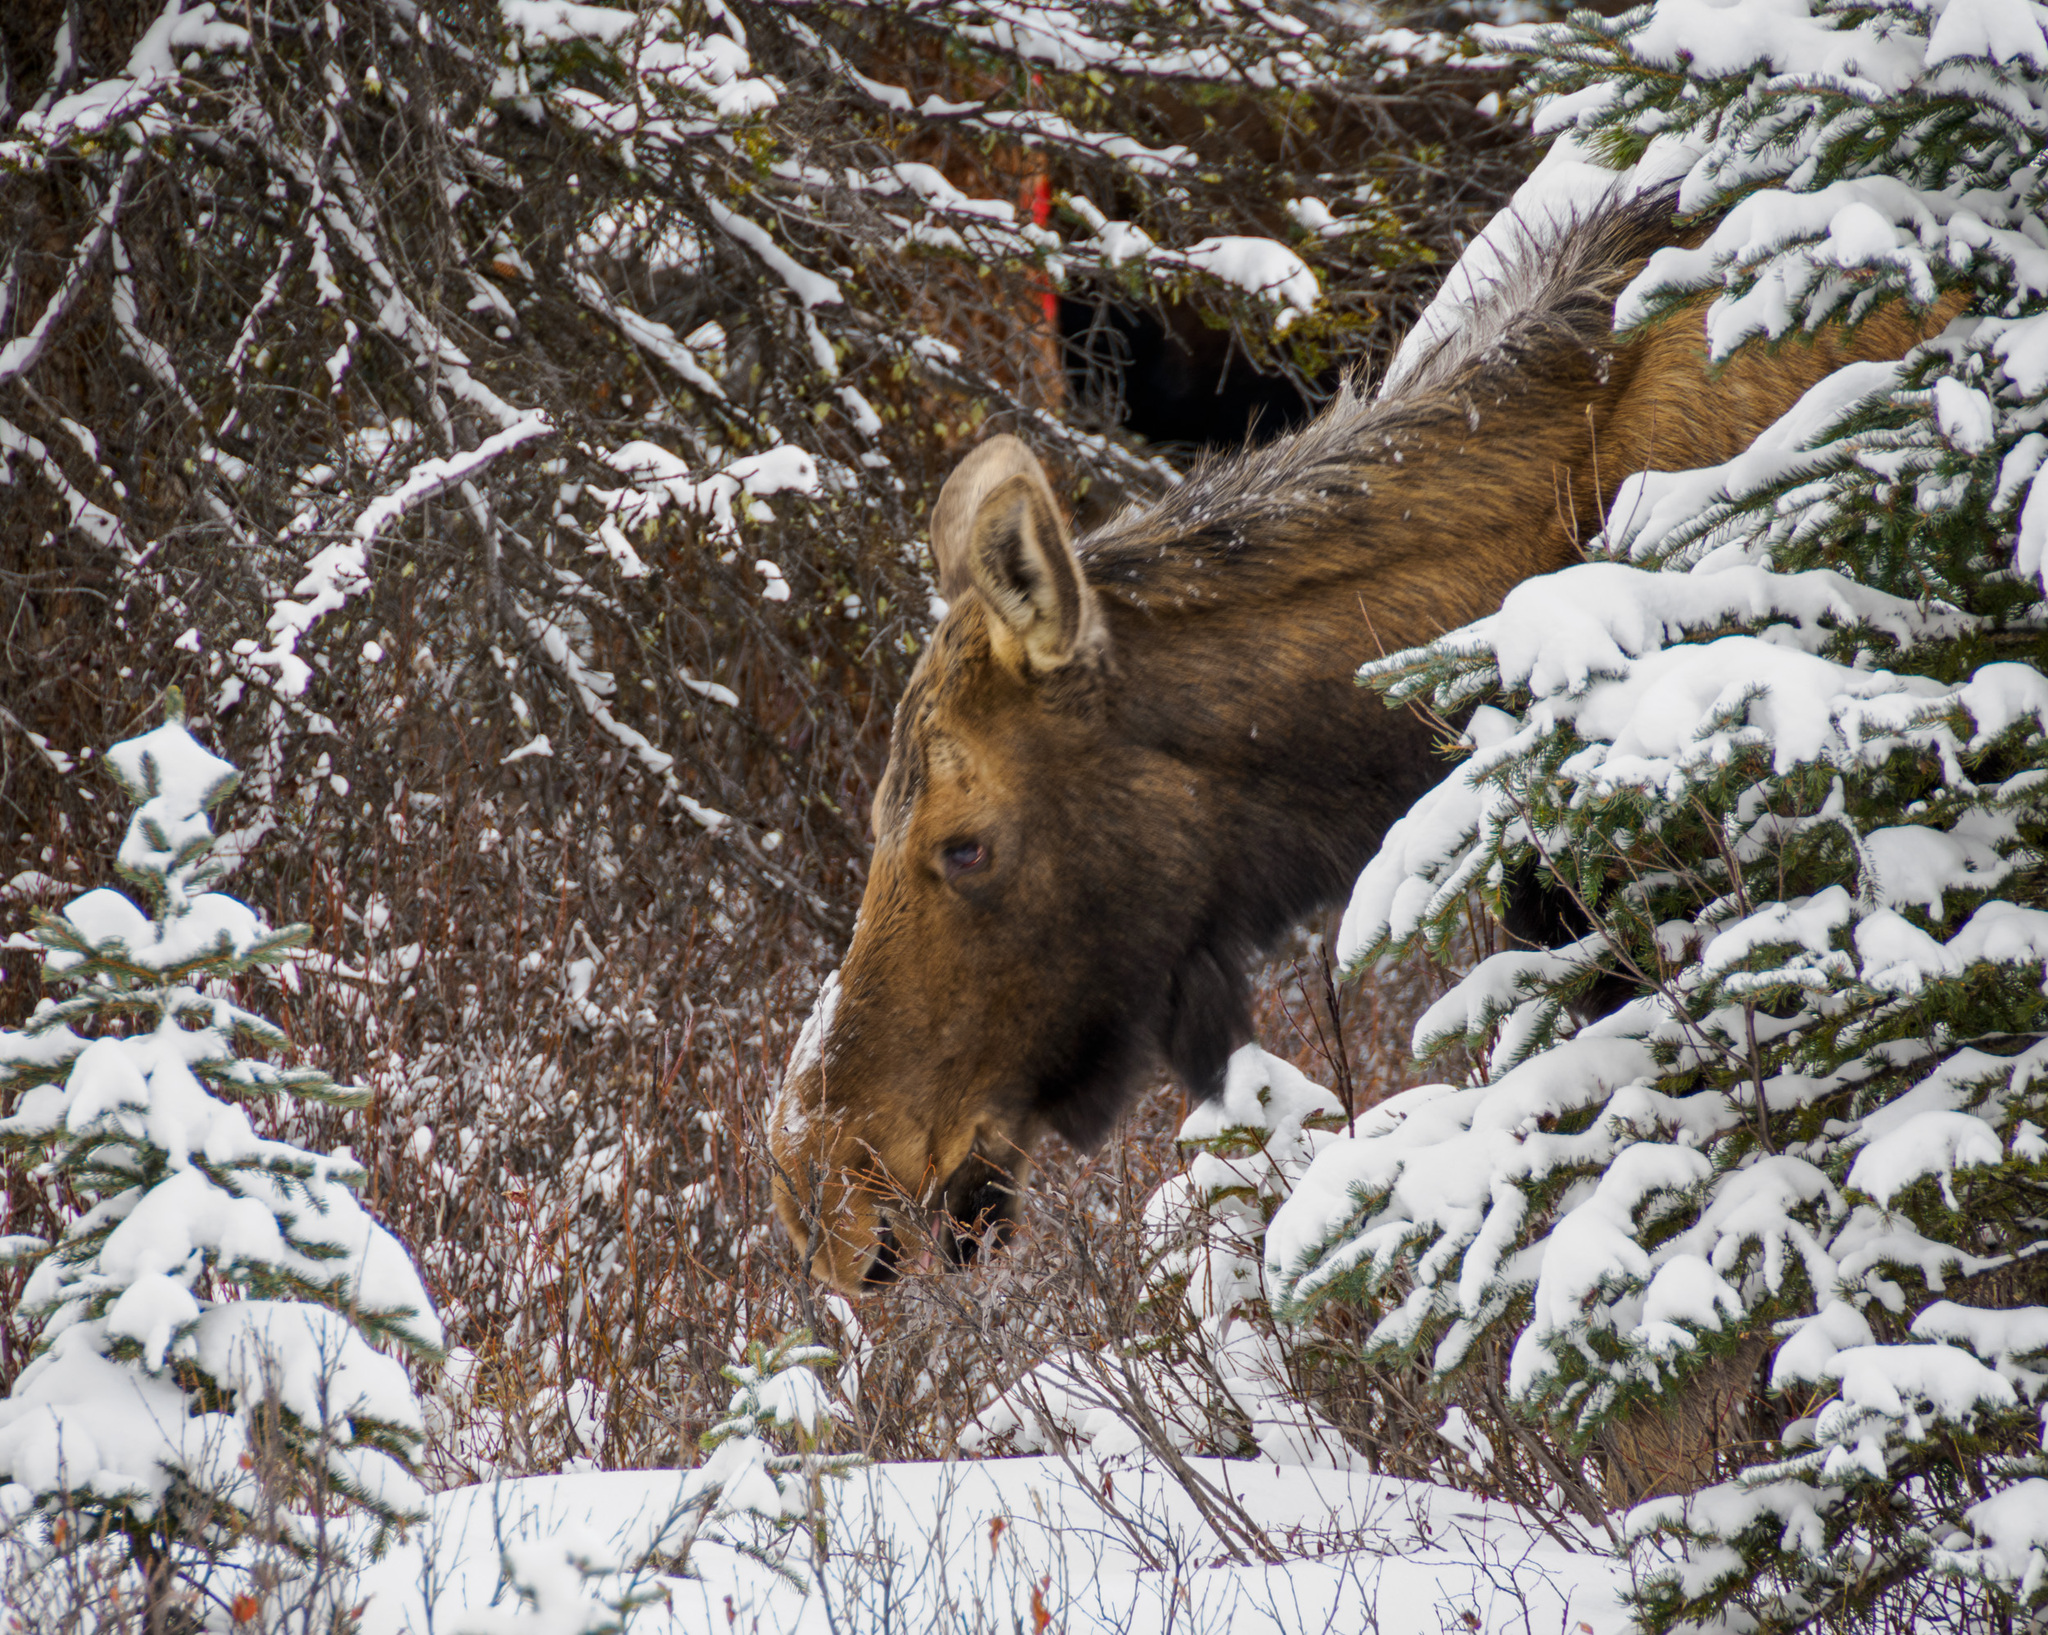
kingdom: Animalia
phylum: Chordata
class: Mammalia
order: Artiodactyla
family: Cervidae
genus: Alces
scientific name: Alces alces
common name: Moose
